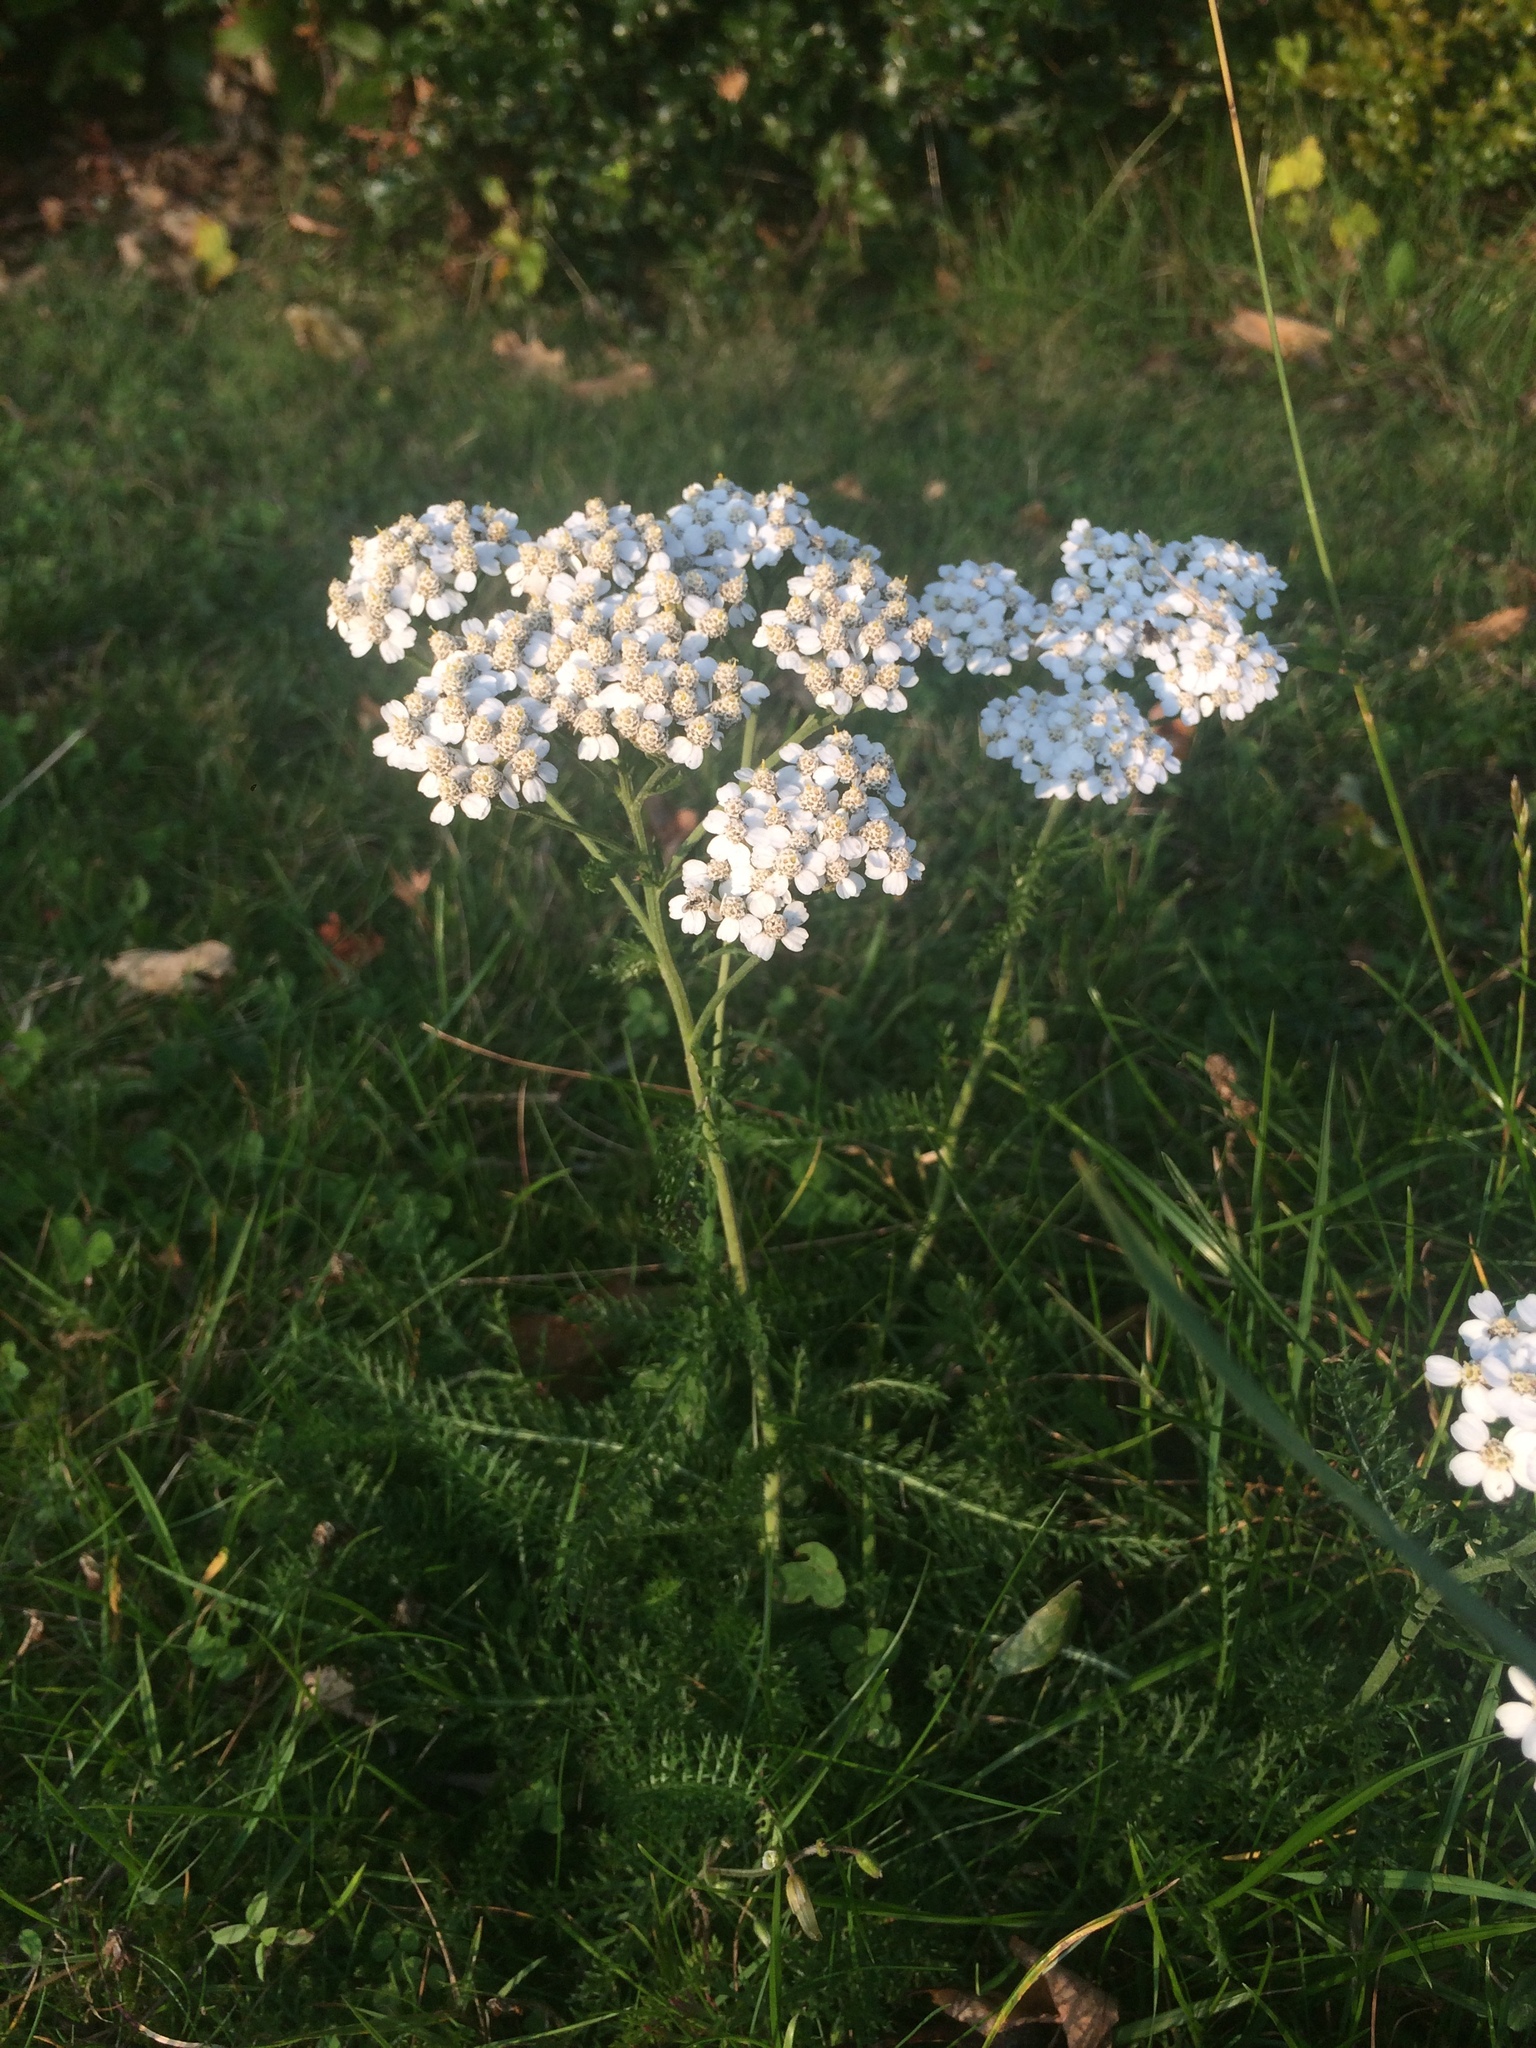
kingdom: Plantae
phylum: Tracheophyta
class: Magnoliopsida
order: Asterales
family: Asteraceae
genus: Achillea
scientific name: Achillea millefolium
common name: Yarrow
